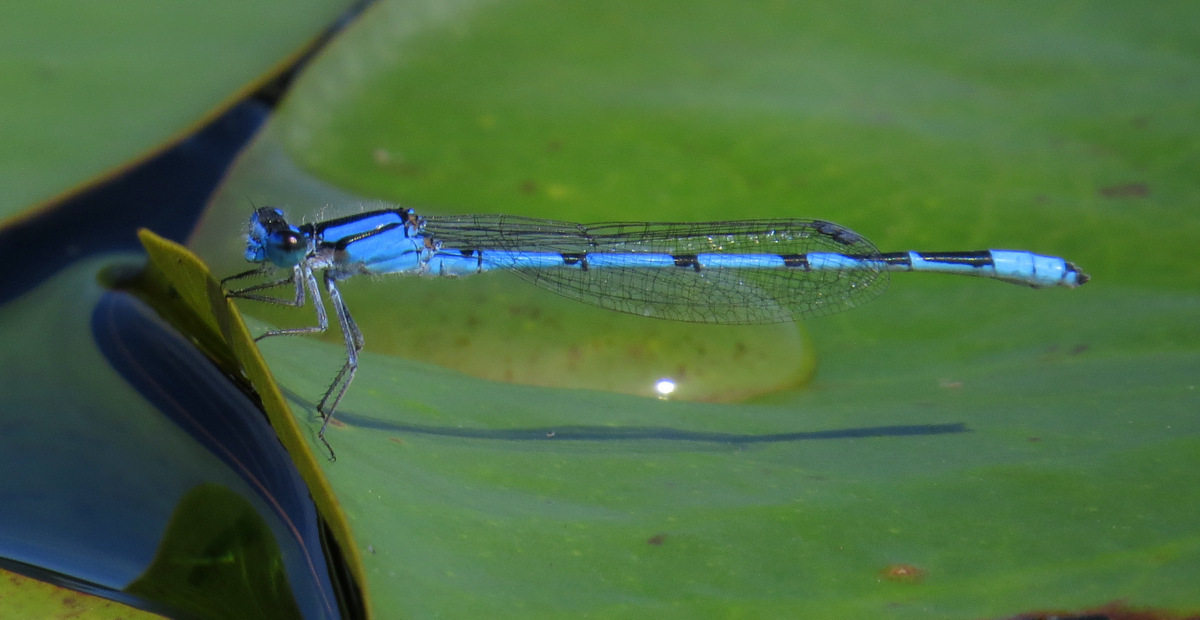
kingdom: Animalia
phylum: Arthropoda
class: Insecta
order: Odonata
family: Coenagrionidae
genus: Enallagma
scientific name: Enallagma civile
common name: Damselfly
